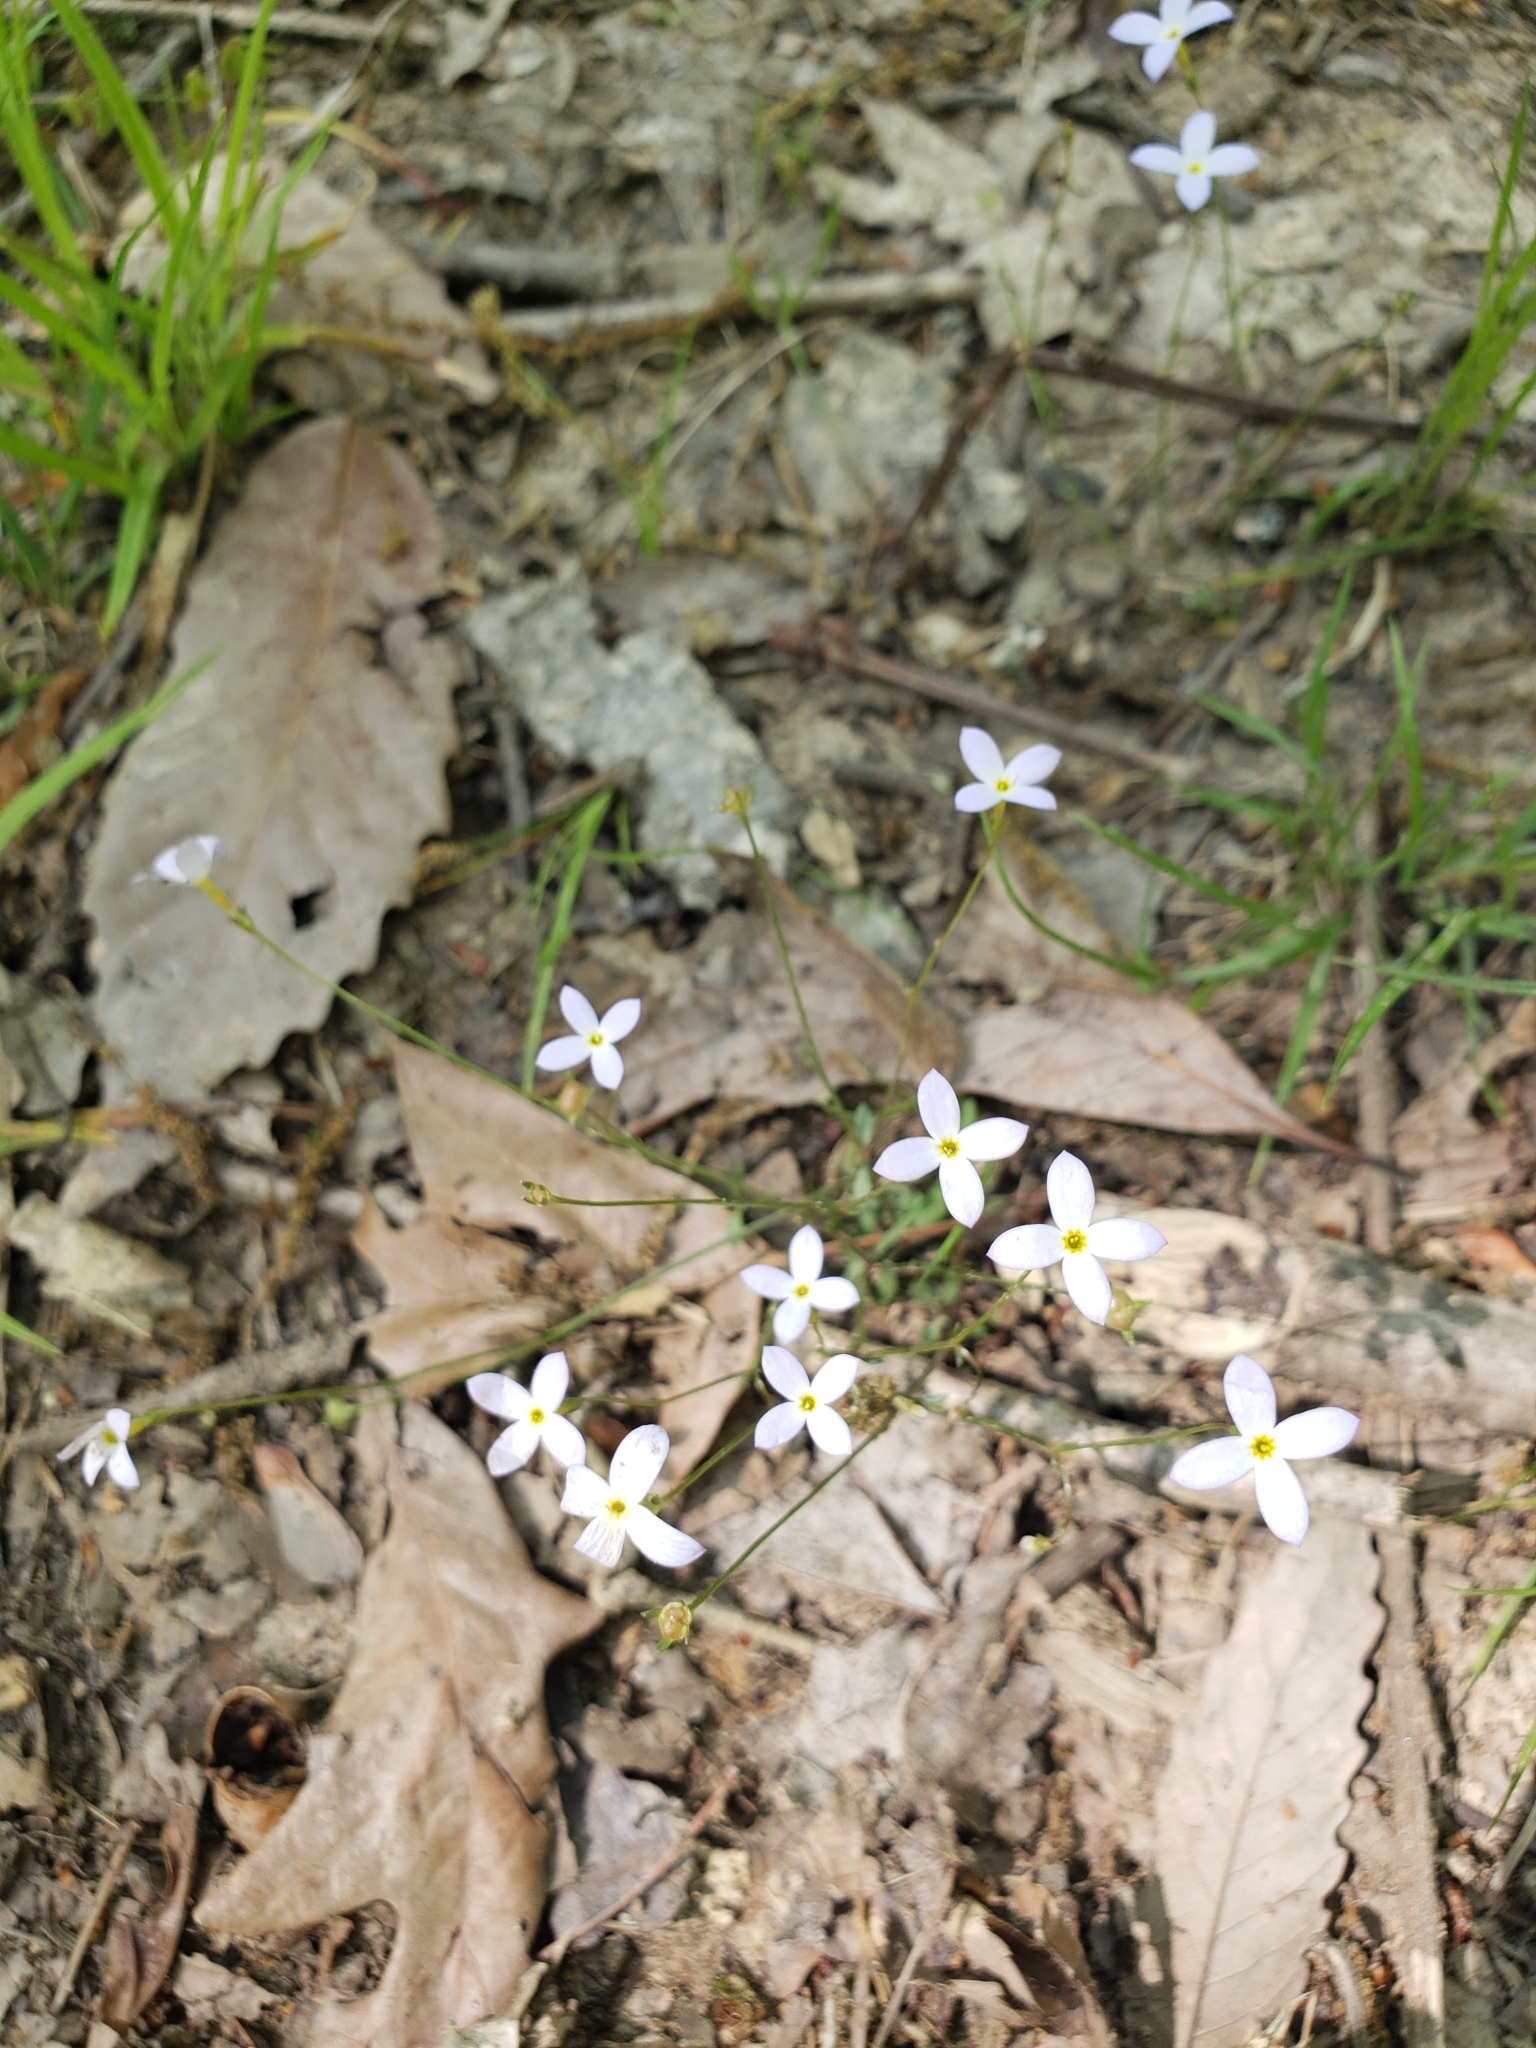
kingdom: Plantae
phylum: Tracheophyta
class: Magnoliopsida
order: Gentianales
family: Rubiaceae
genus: Houstonia
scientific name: Houstonia caerulea
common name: Bluets
